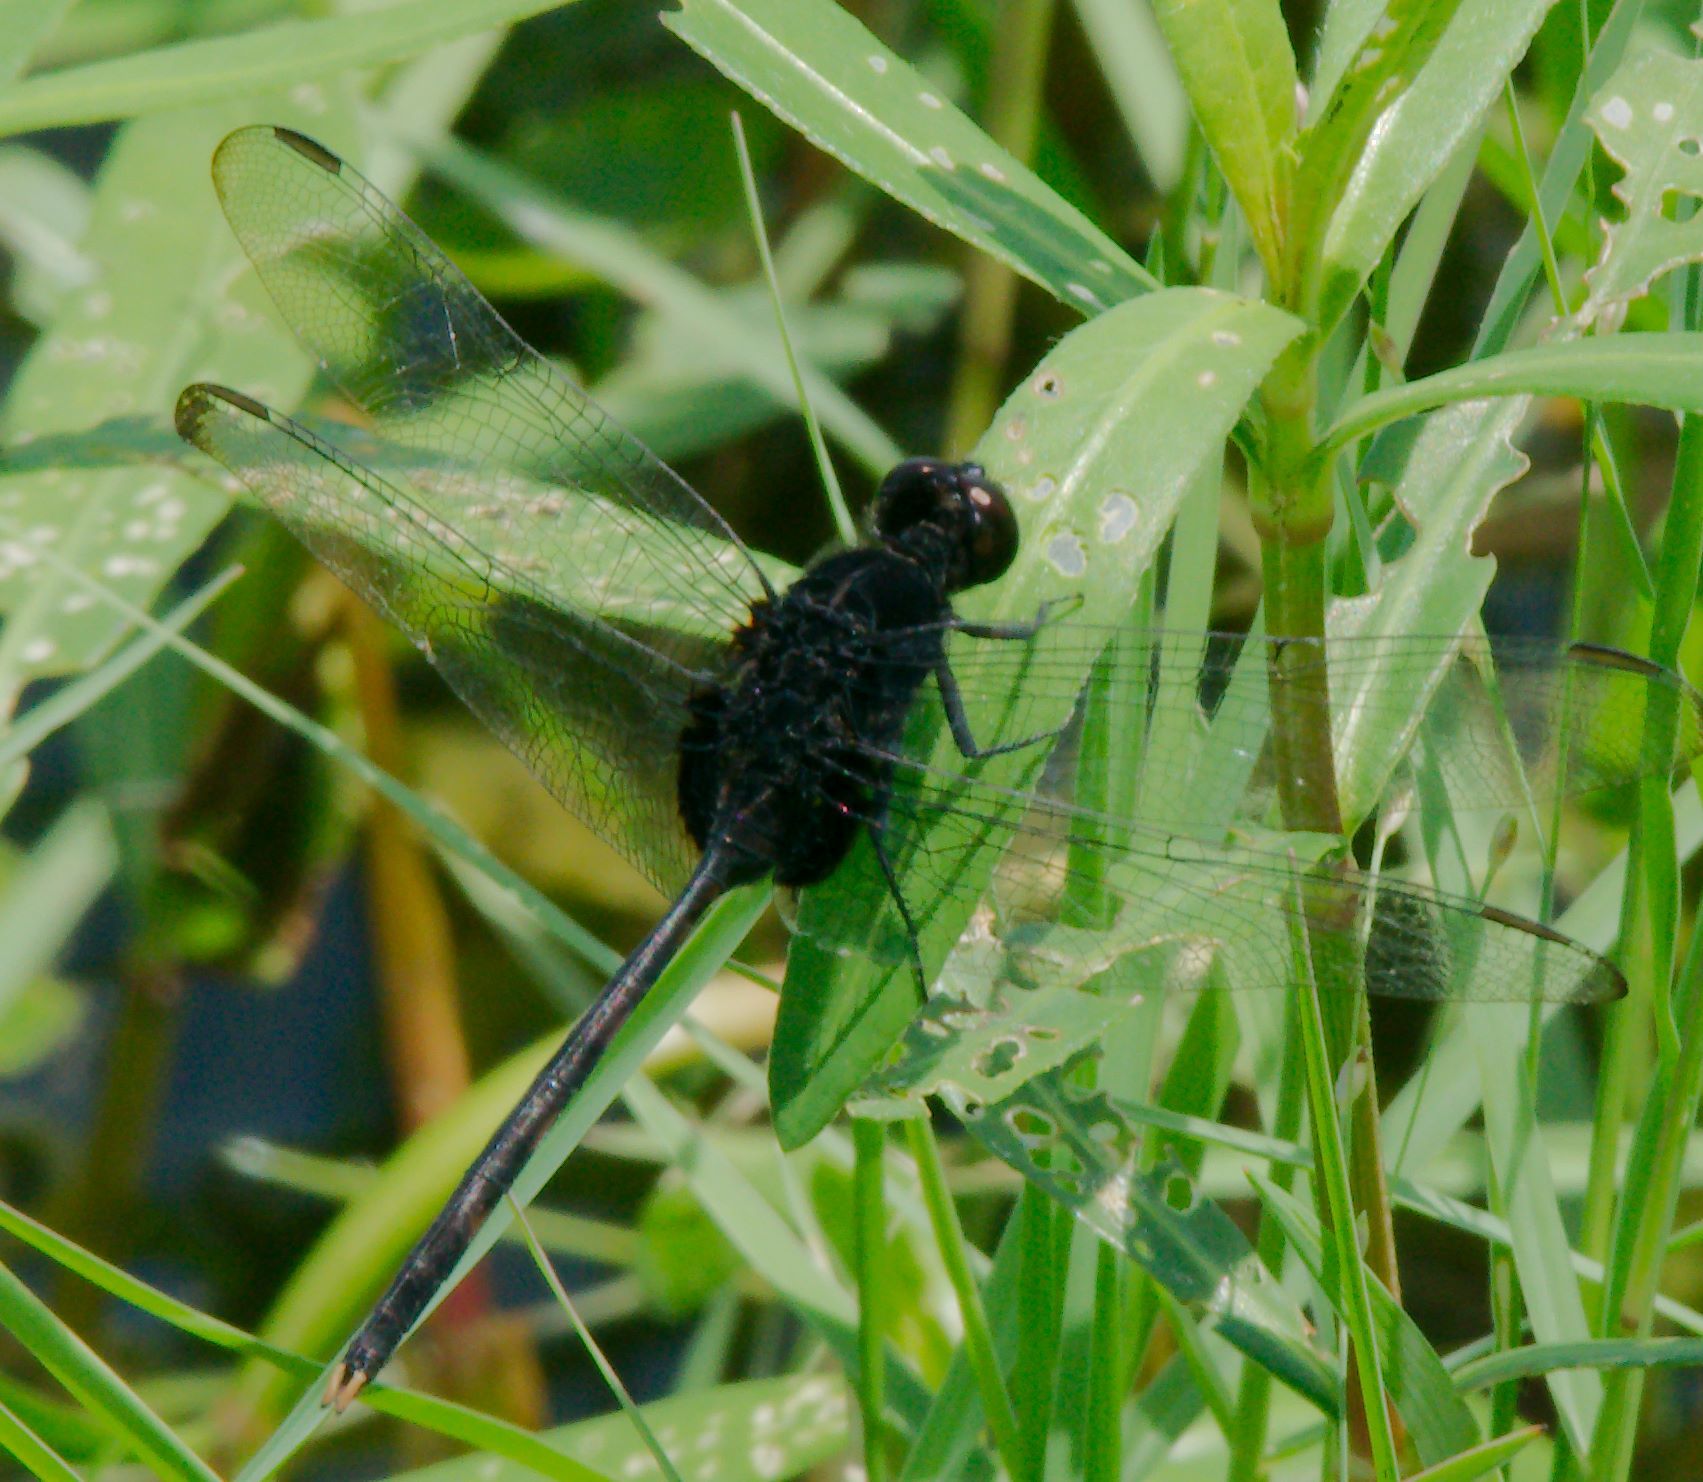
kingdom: Animalia
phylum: Arthropoda
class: Insecta
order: Odonata
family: Libellulidae
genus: Erythemis
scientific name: Erythemis plebeja
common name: Pin-tailed pondhawk
